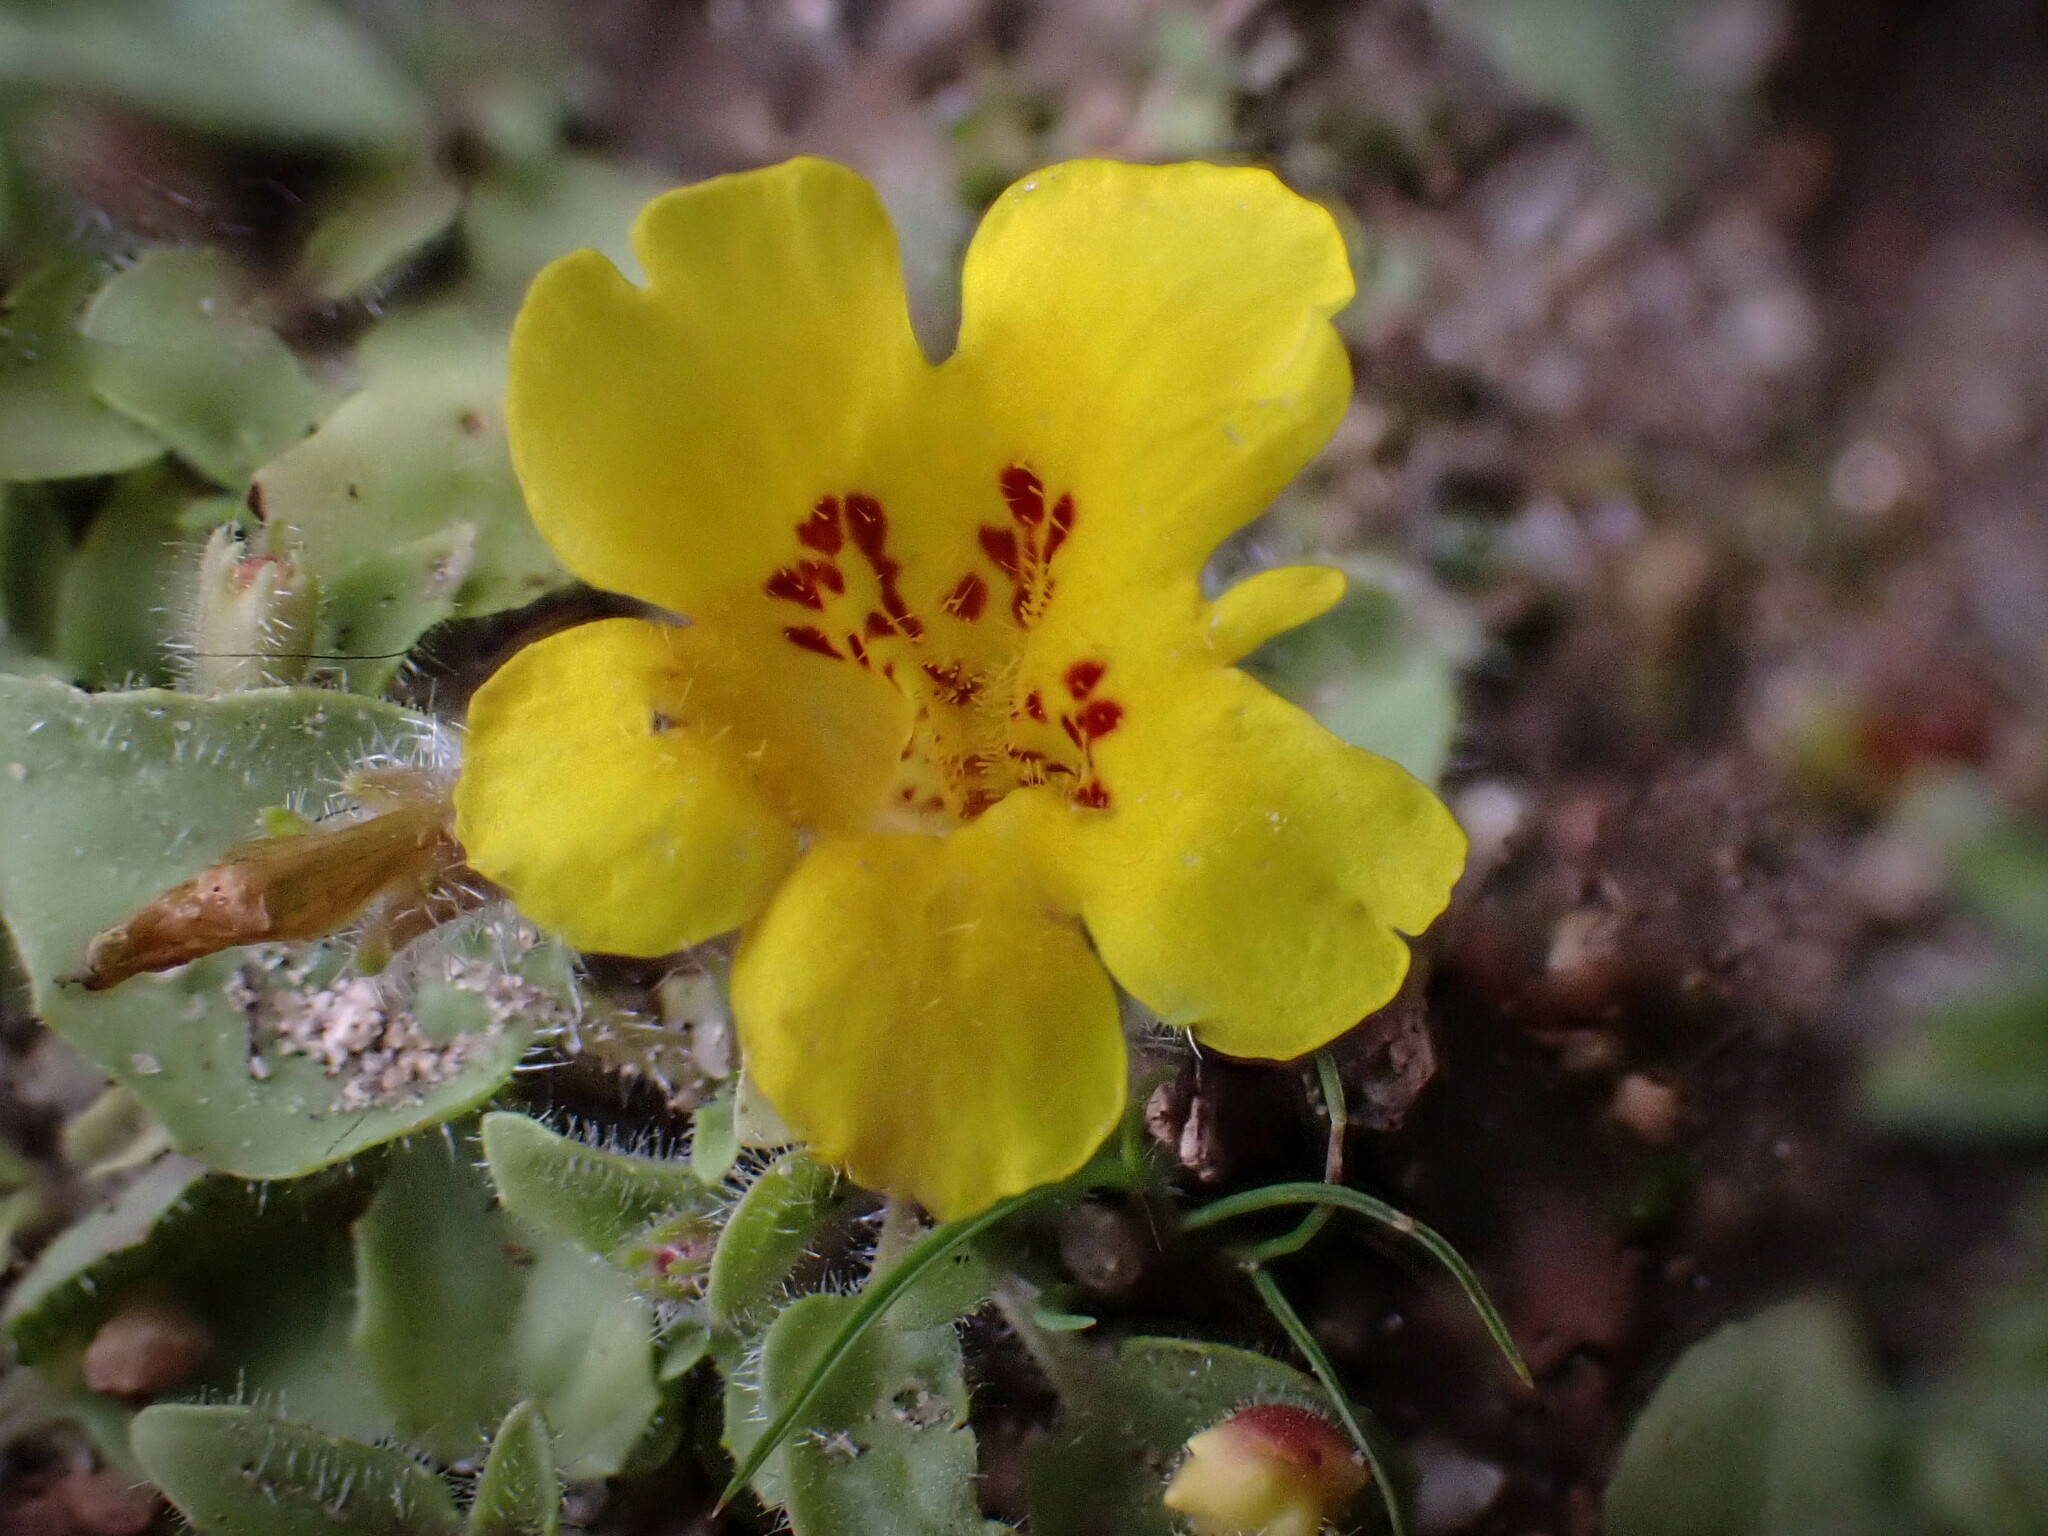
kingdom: Plantae
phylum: Tracheophyta
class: Magnoliopsida
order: Lamiales
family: Phrymaceae
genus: Erythranthe
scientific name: Erythranthe geniculata
